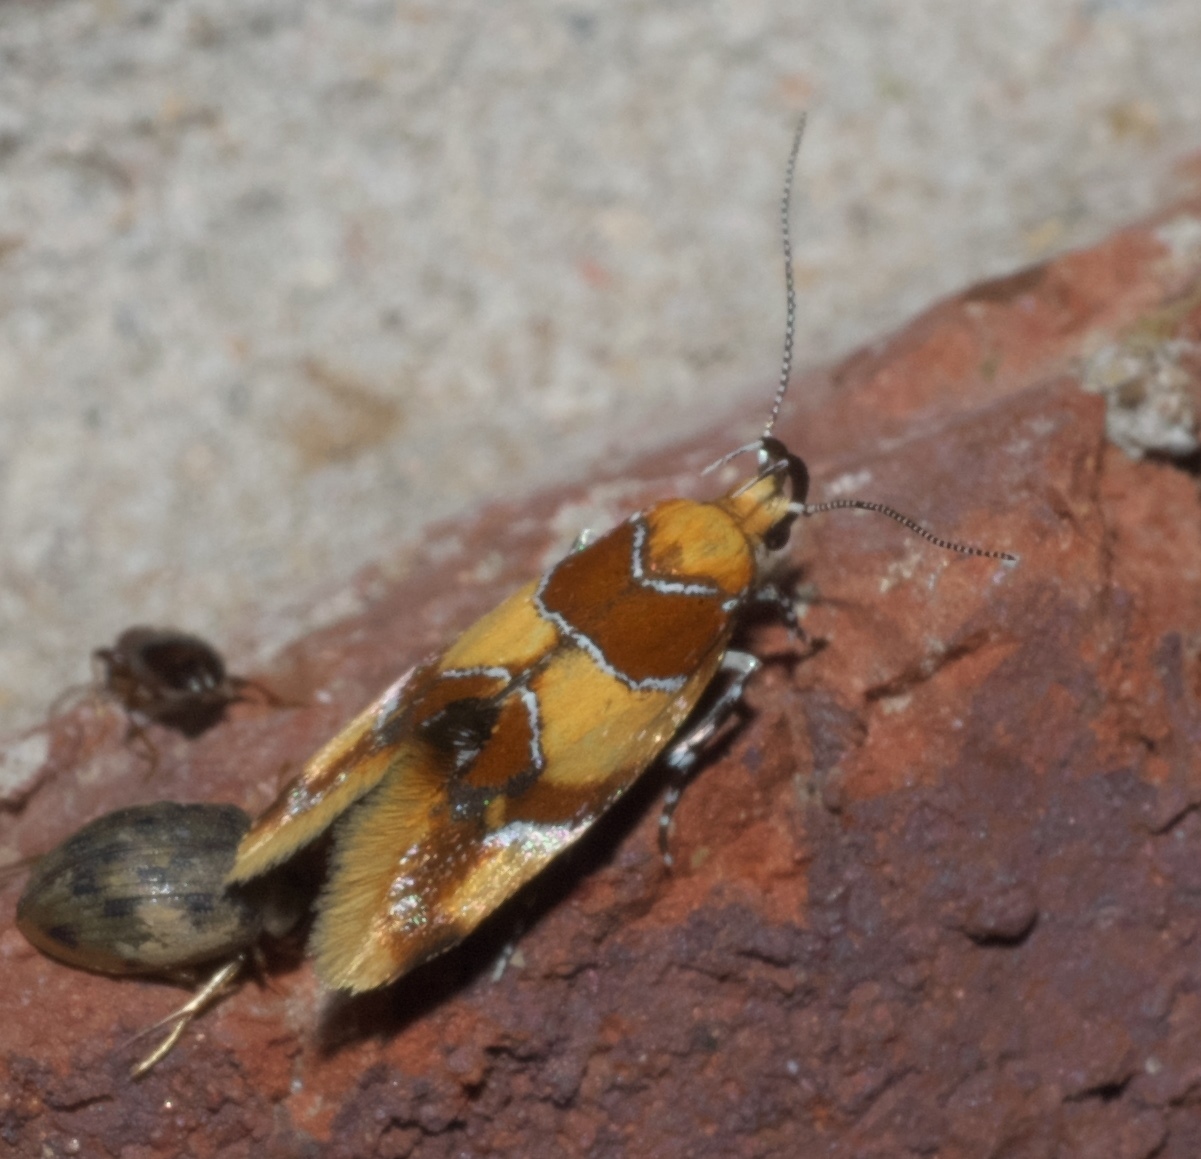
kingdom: Animalia
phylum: Arthropoda
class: Insecta
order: Lepidoptera
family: Oecophoridae
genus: Callima
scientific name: Callima argenticinctella
